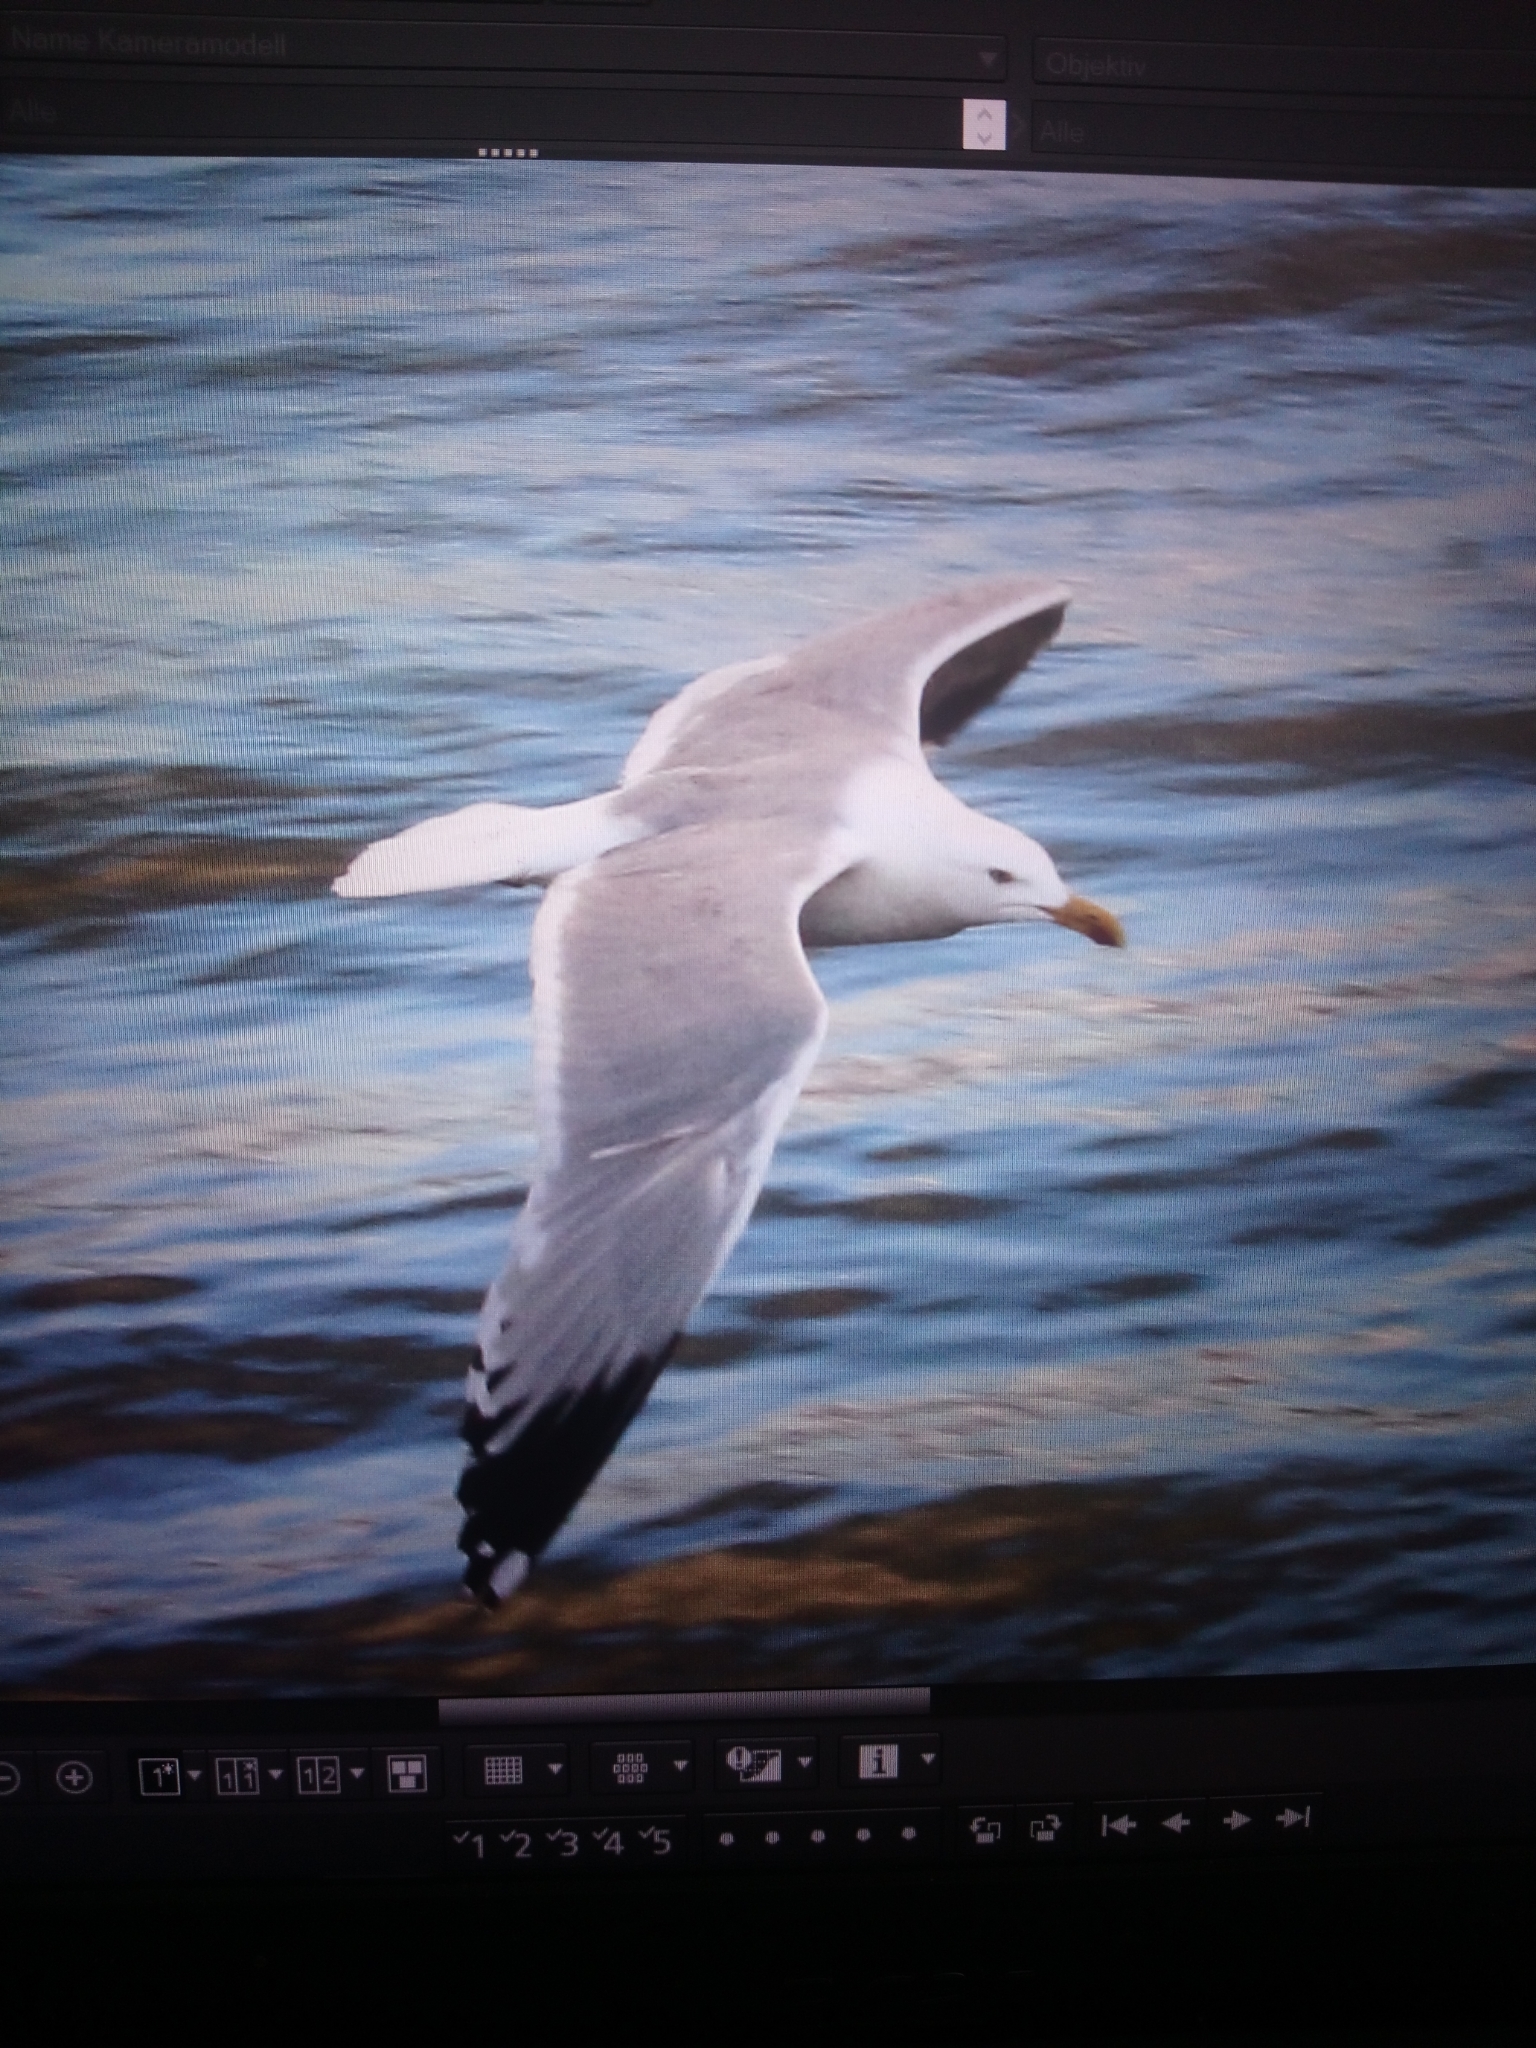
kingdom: Animalia
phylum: Chordata
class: Aves
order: Charadriiformes
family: Laridae
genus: Larus
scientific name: Larus argentatus
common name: Herring gull
